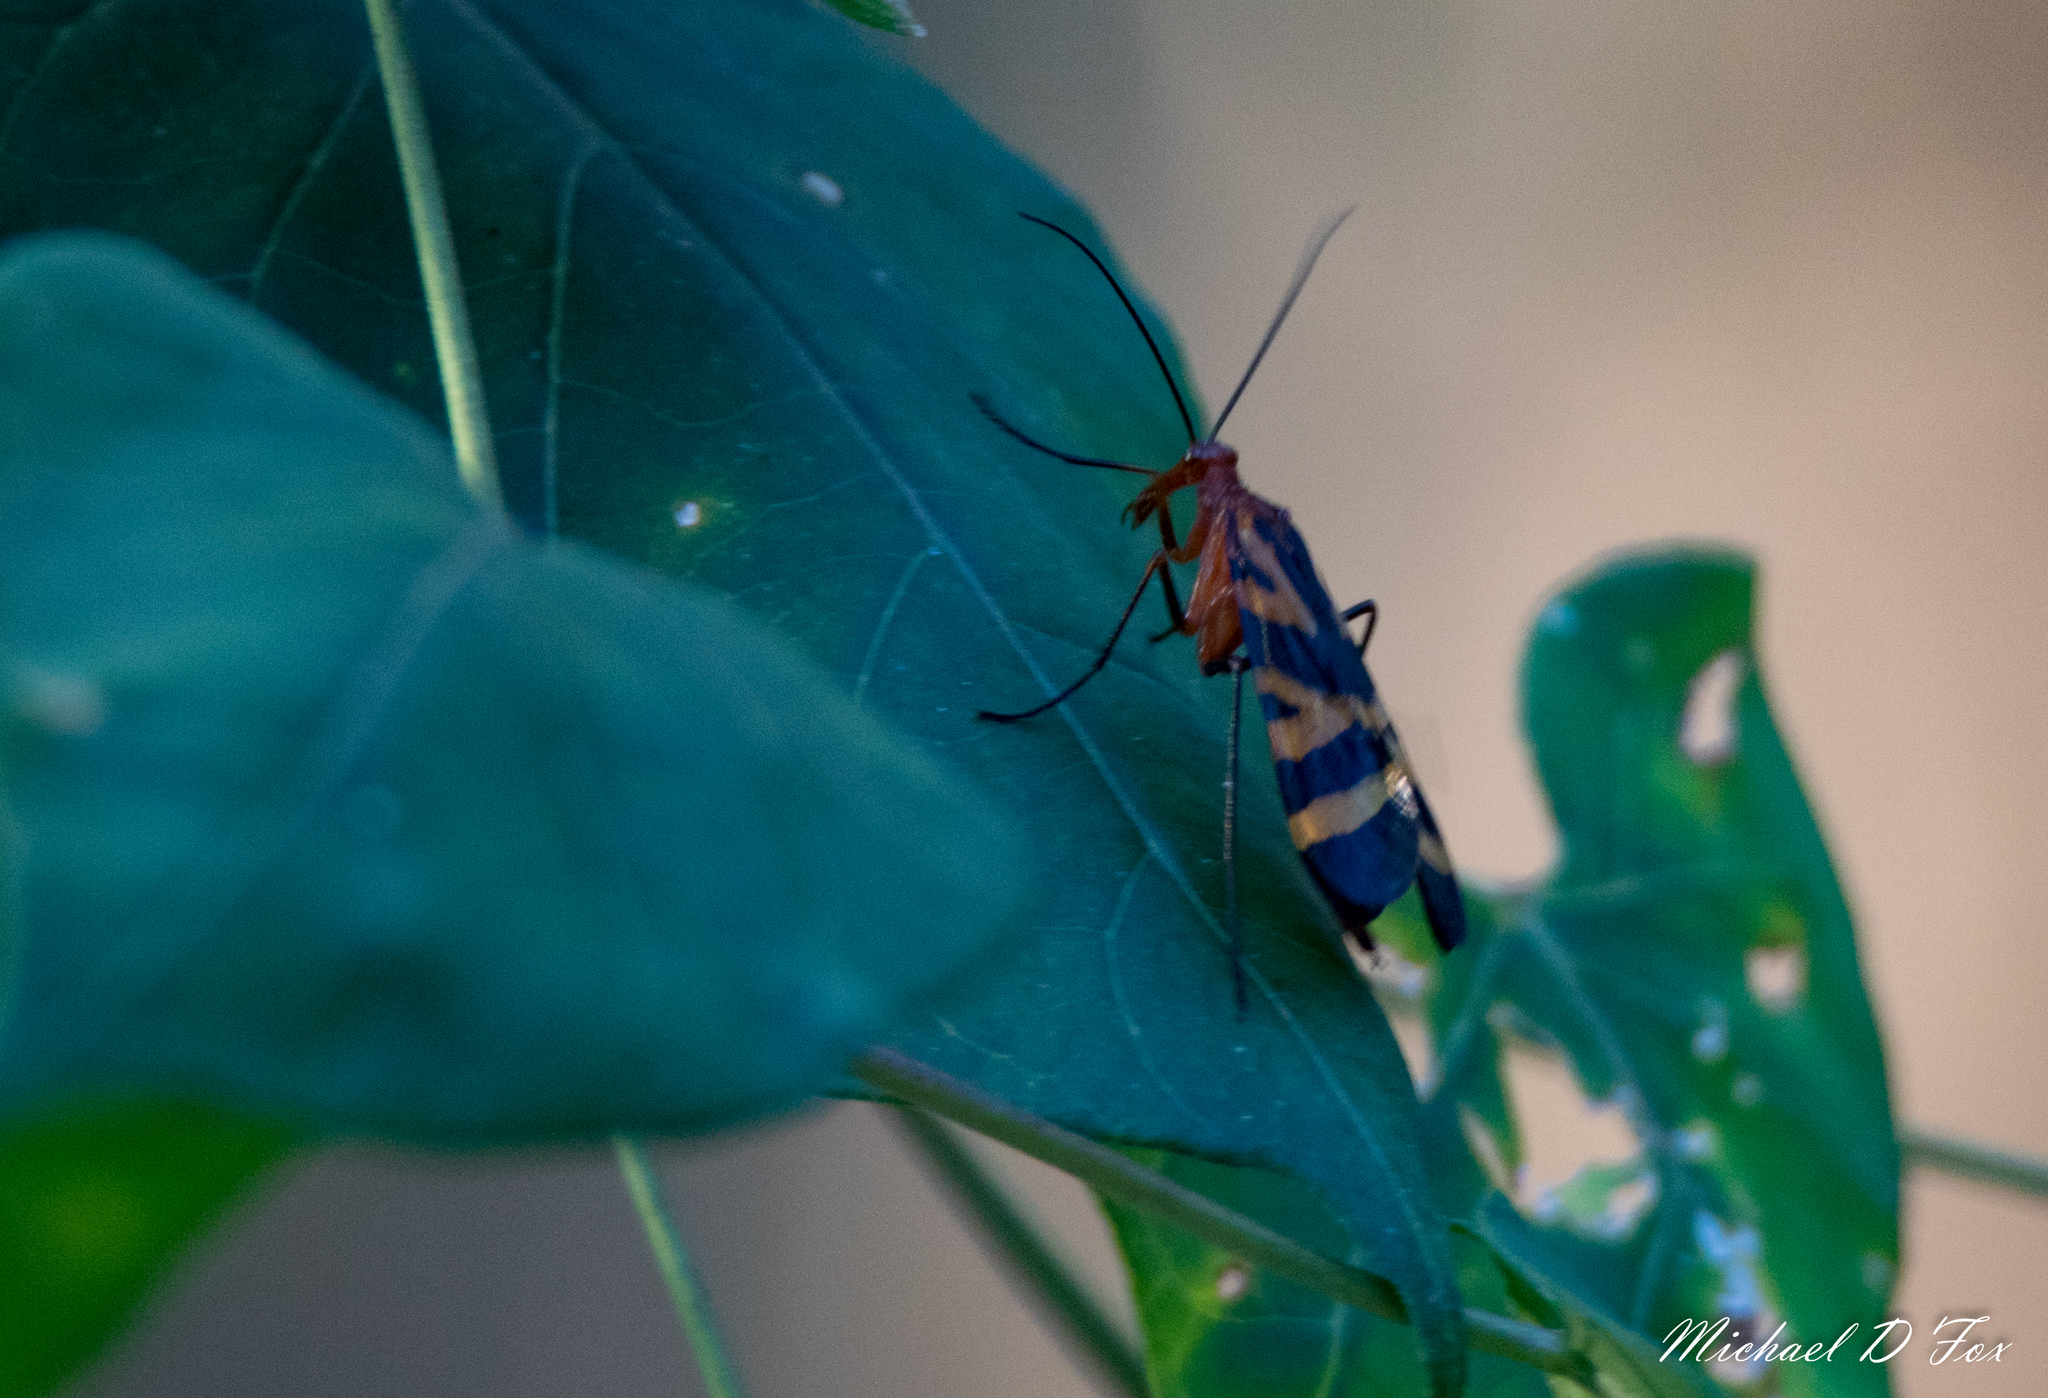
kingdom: Animalia
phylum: Arthropoda
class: Insecta
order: Mecoptera
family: Panorpidae
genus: Panorpa
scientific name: Panorpa nuptialis
